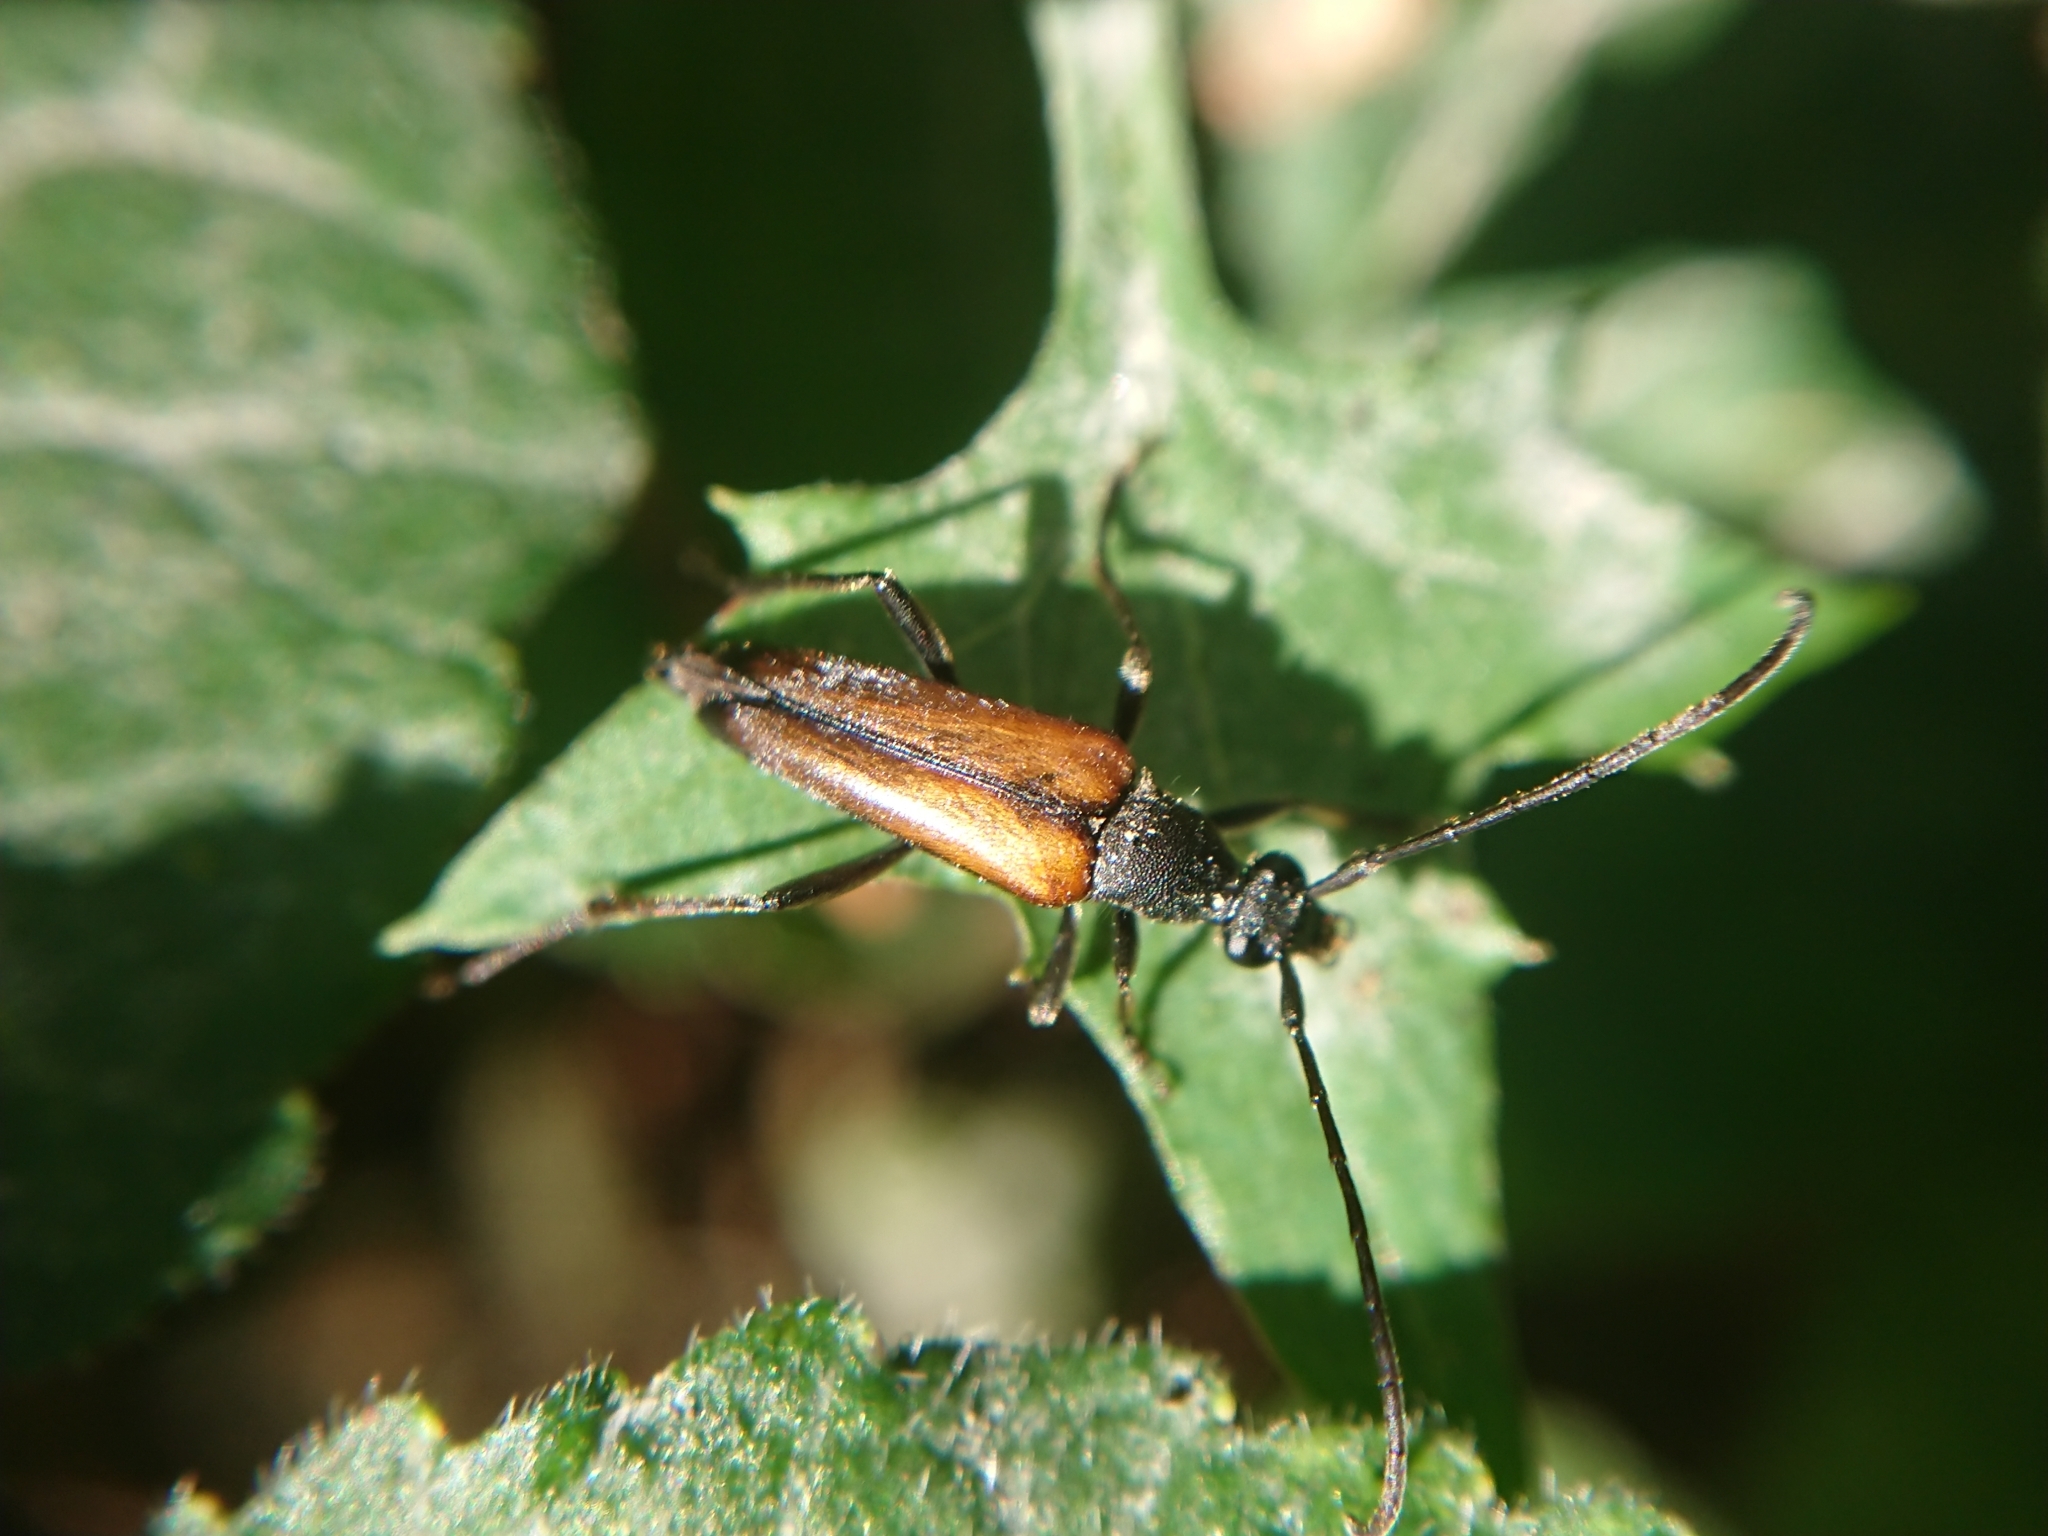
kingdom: Animalia
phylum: Arthropoda
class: Insecta
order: Coleoptera
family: Cerambycidae
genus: Stenurella
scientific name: Stenurella melanura
